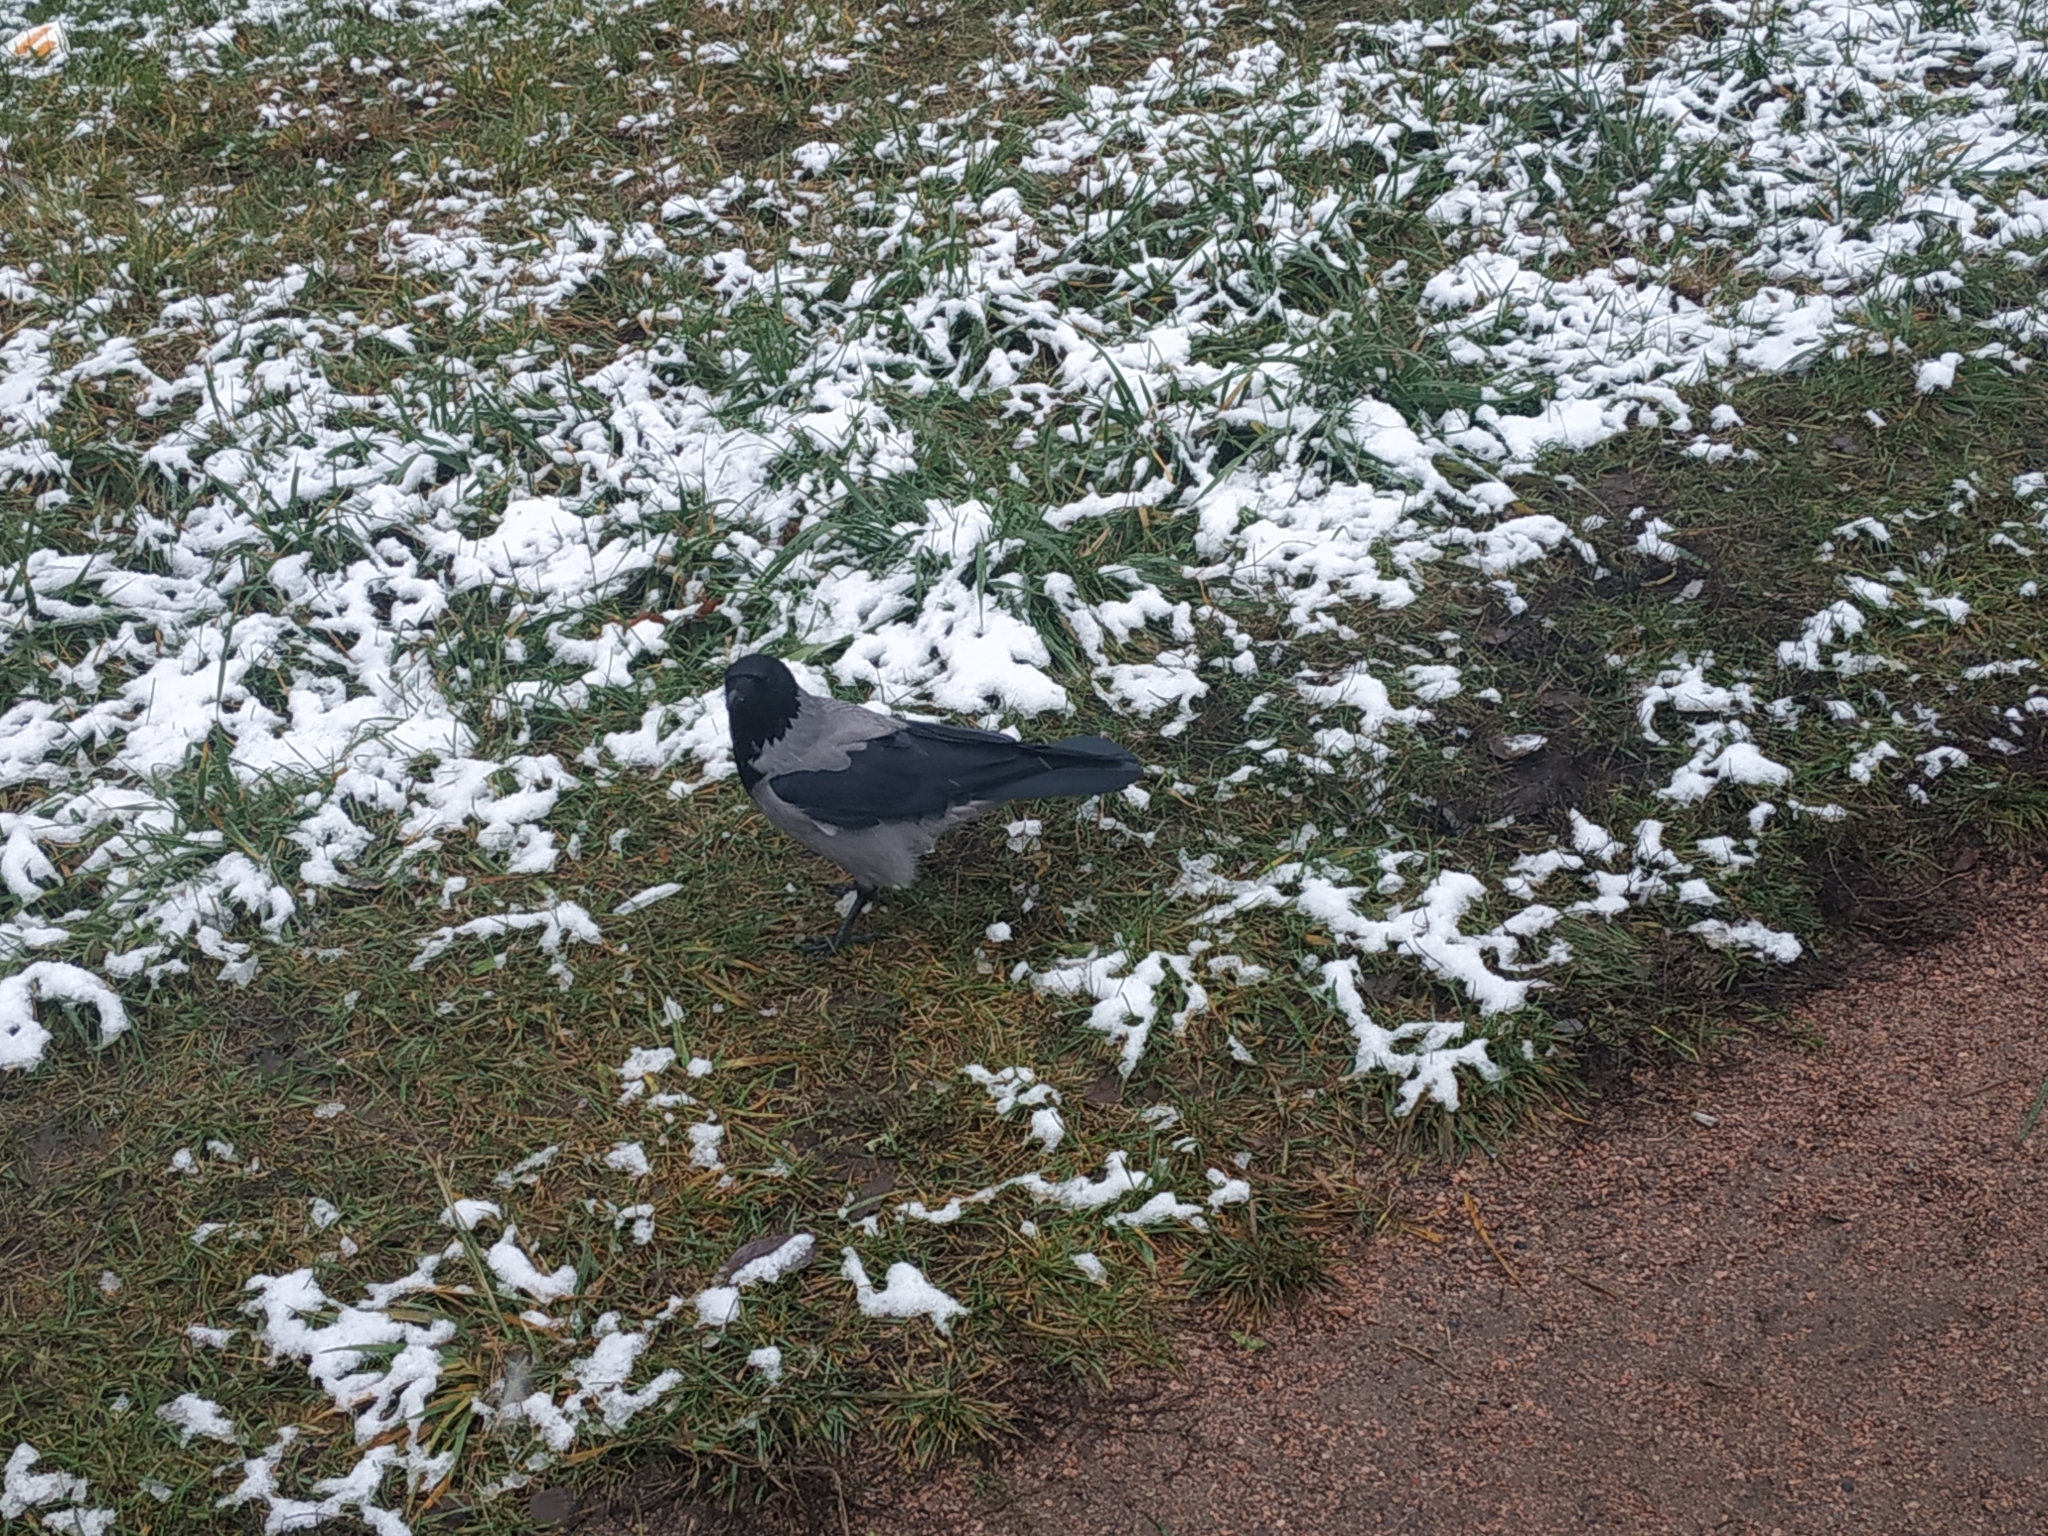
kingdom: Animalia
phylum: Chordata
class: Aves
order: Passeriformes
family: Corvidae
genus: Corvus
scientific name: Corvus cornix
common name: Hooded crow
